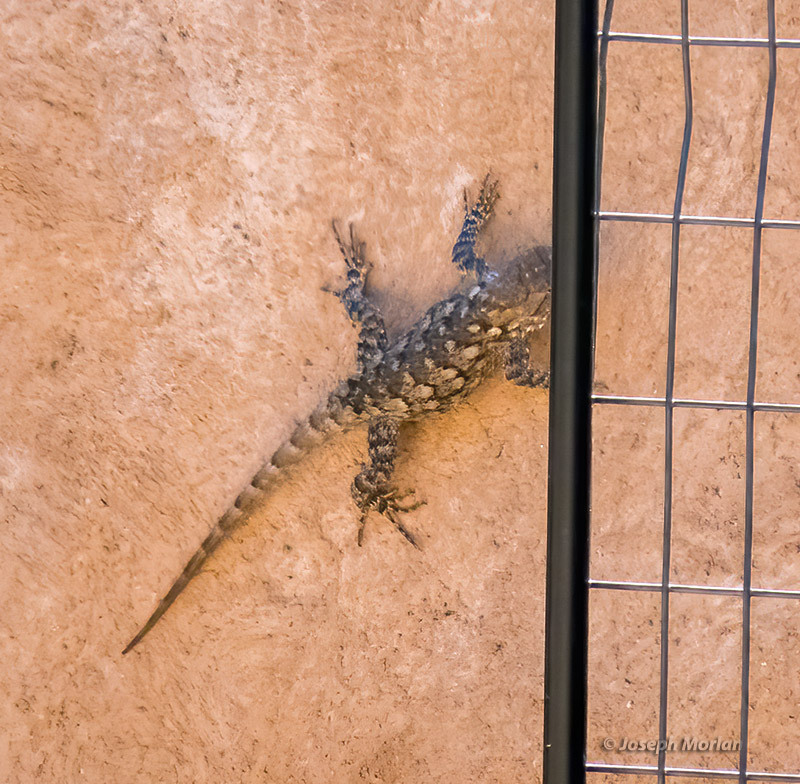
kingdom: Animalia
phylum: Chordata
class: Squamata
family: Phrynosomatidae
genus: Sceloporus
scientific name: Sceloporus clarkii
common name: Clark's spiny lizard
